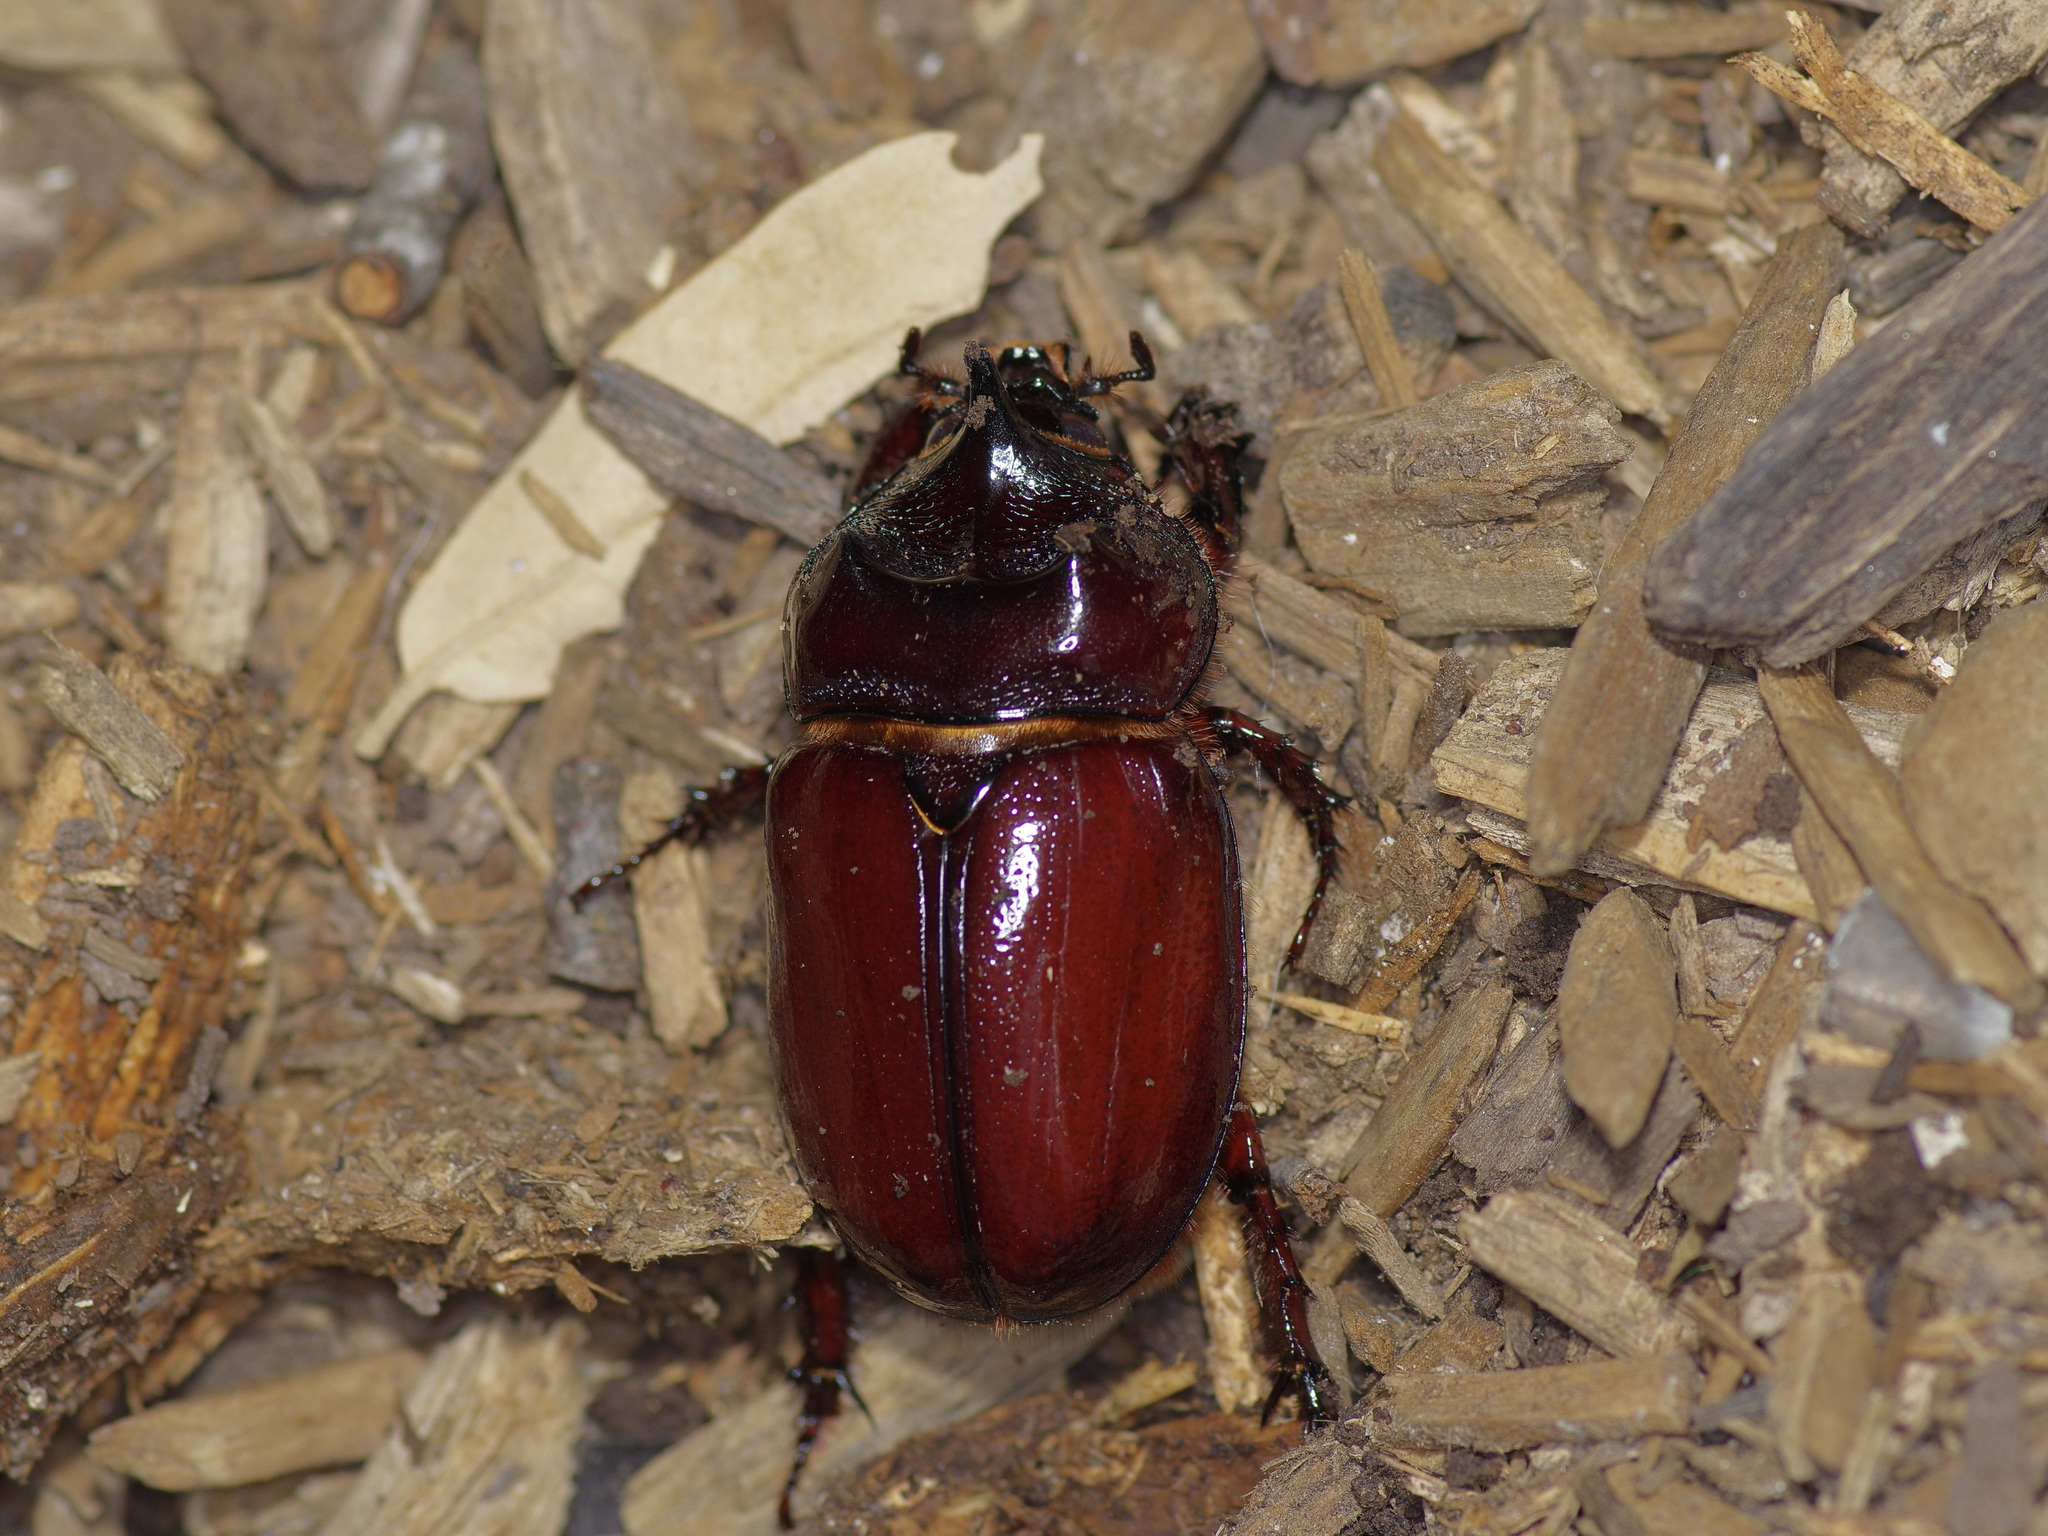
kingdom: Animalia
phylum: Arthropoda
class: Insecta
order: Coleoptera
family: Scarabaeidae
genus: Strategus
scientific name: Strategus aloeus
